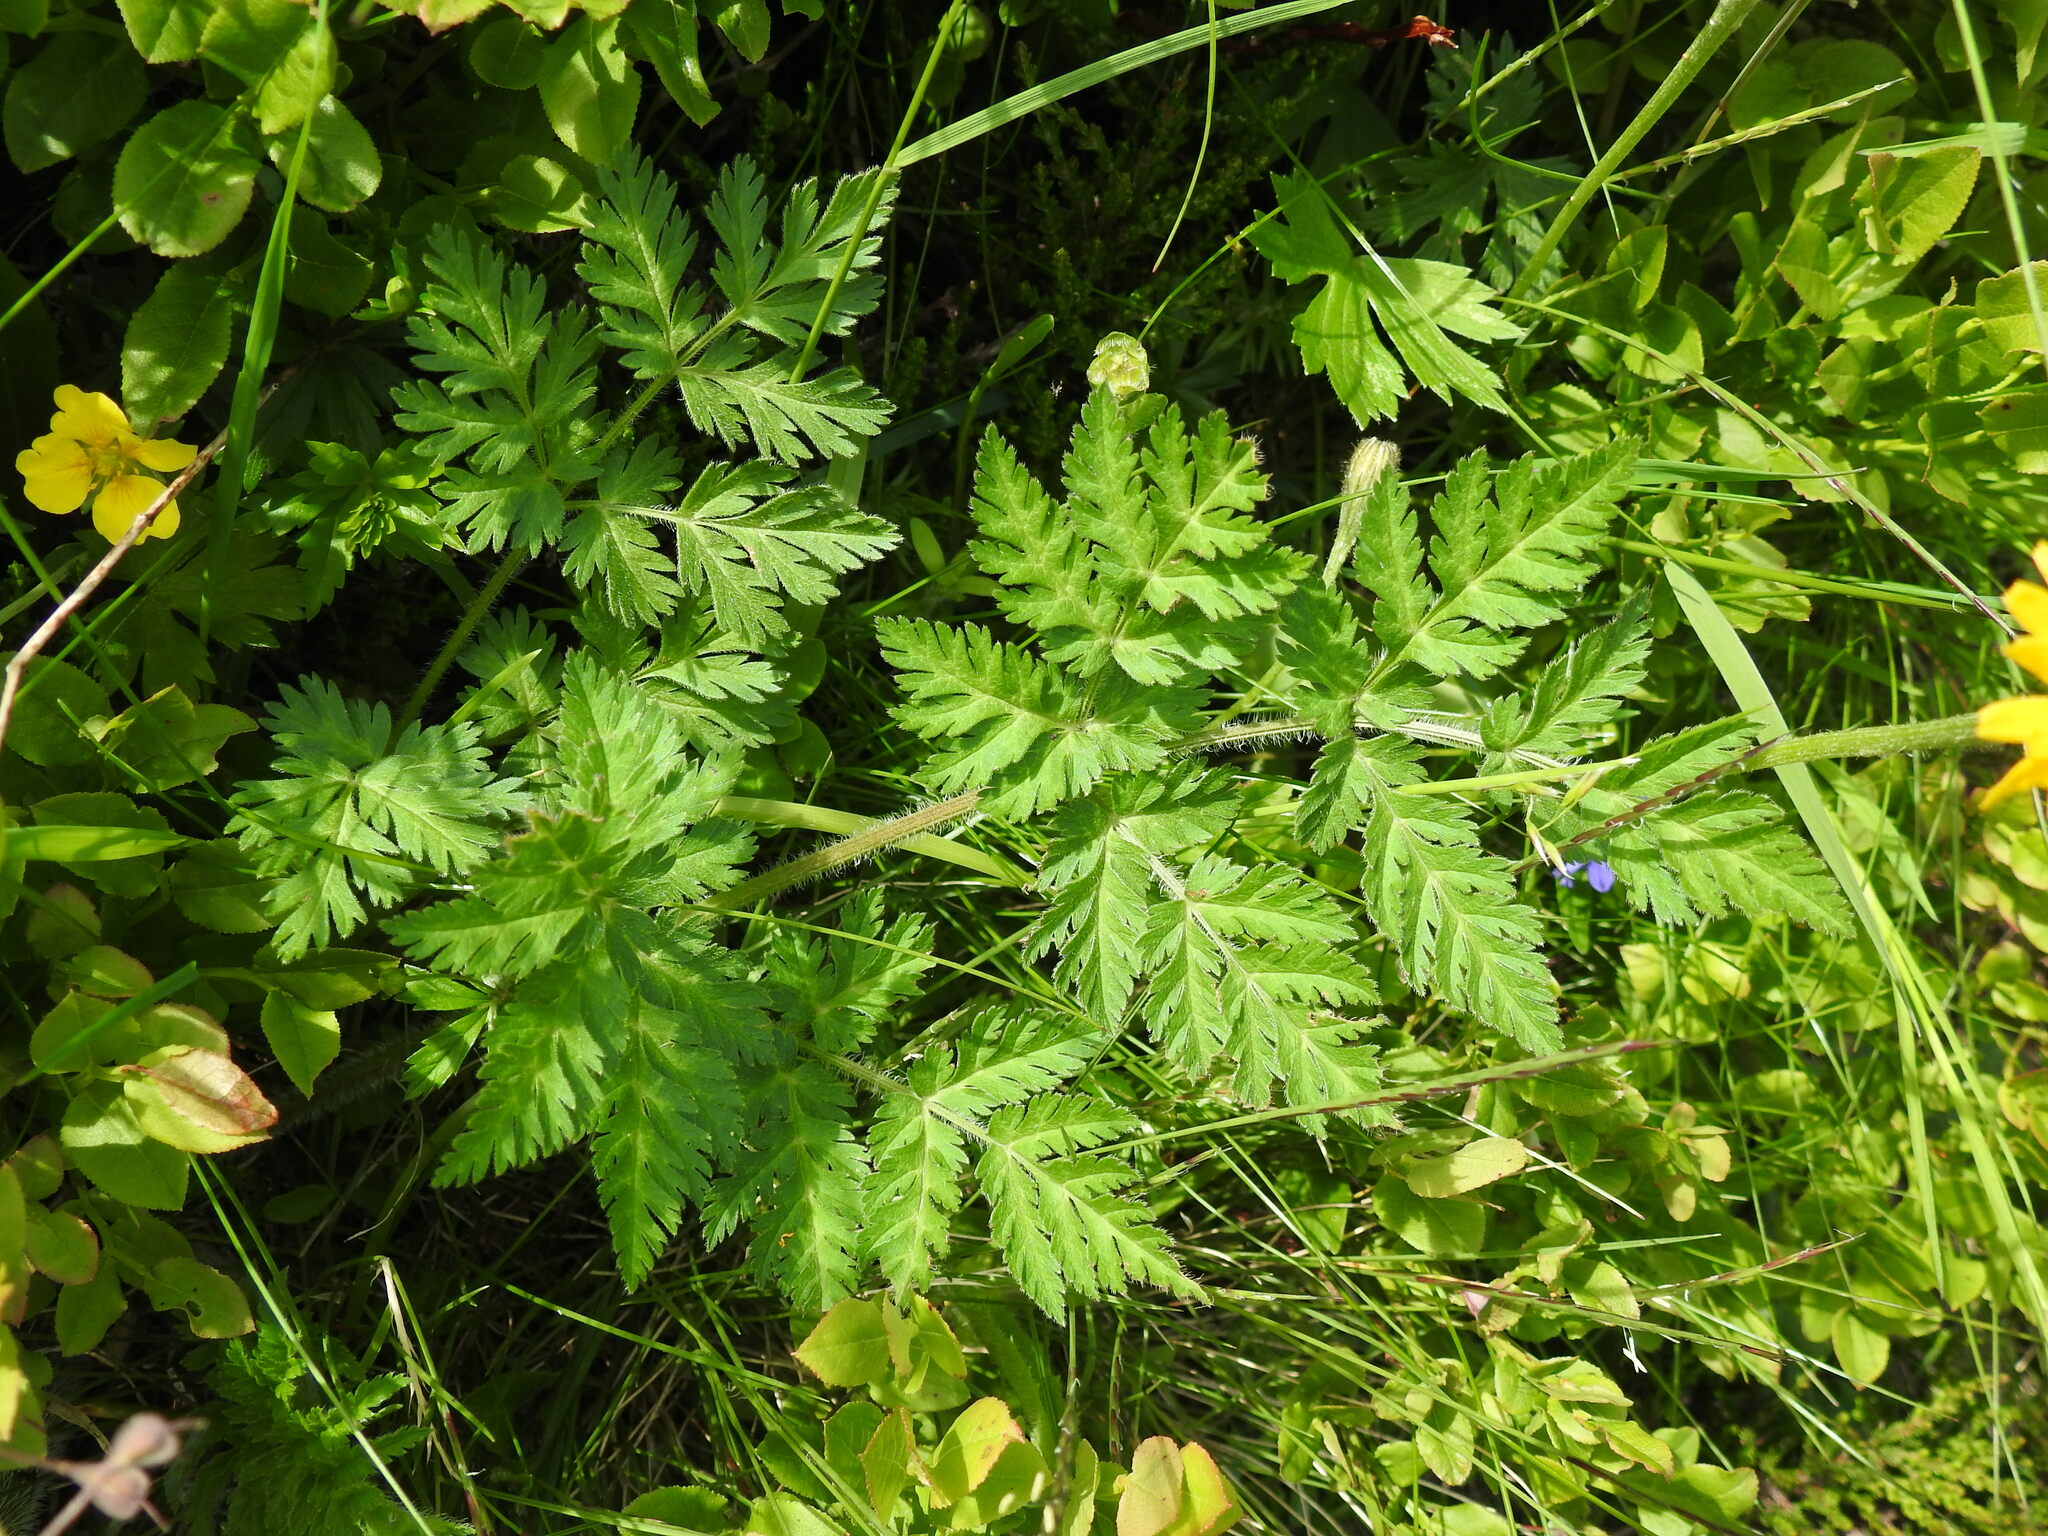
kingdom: Plantae
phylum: Tracheophyta
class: Magnoliopsida
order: Apiales
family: Apiaceae
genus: Chaerophyllum
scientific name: Chaerophyllum villarsii
